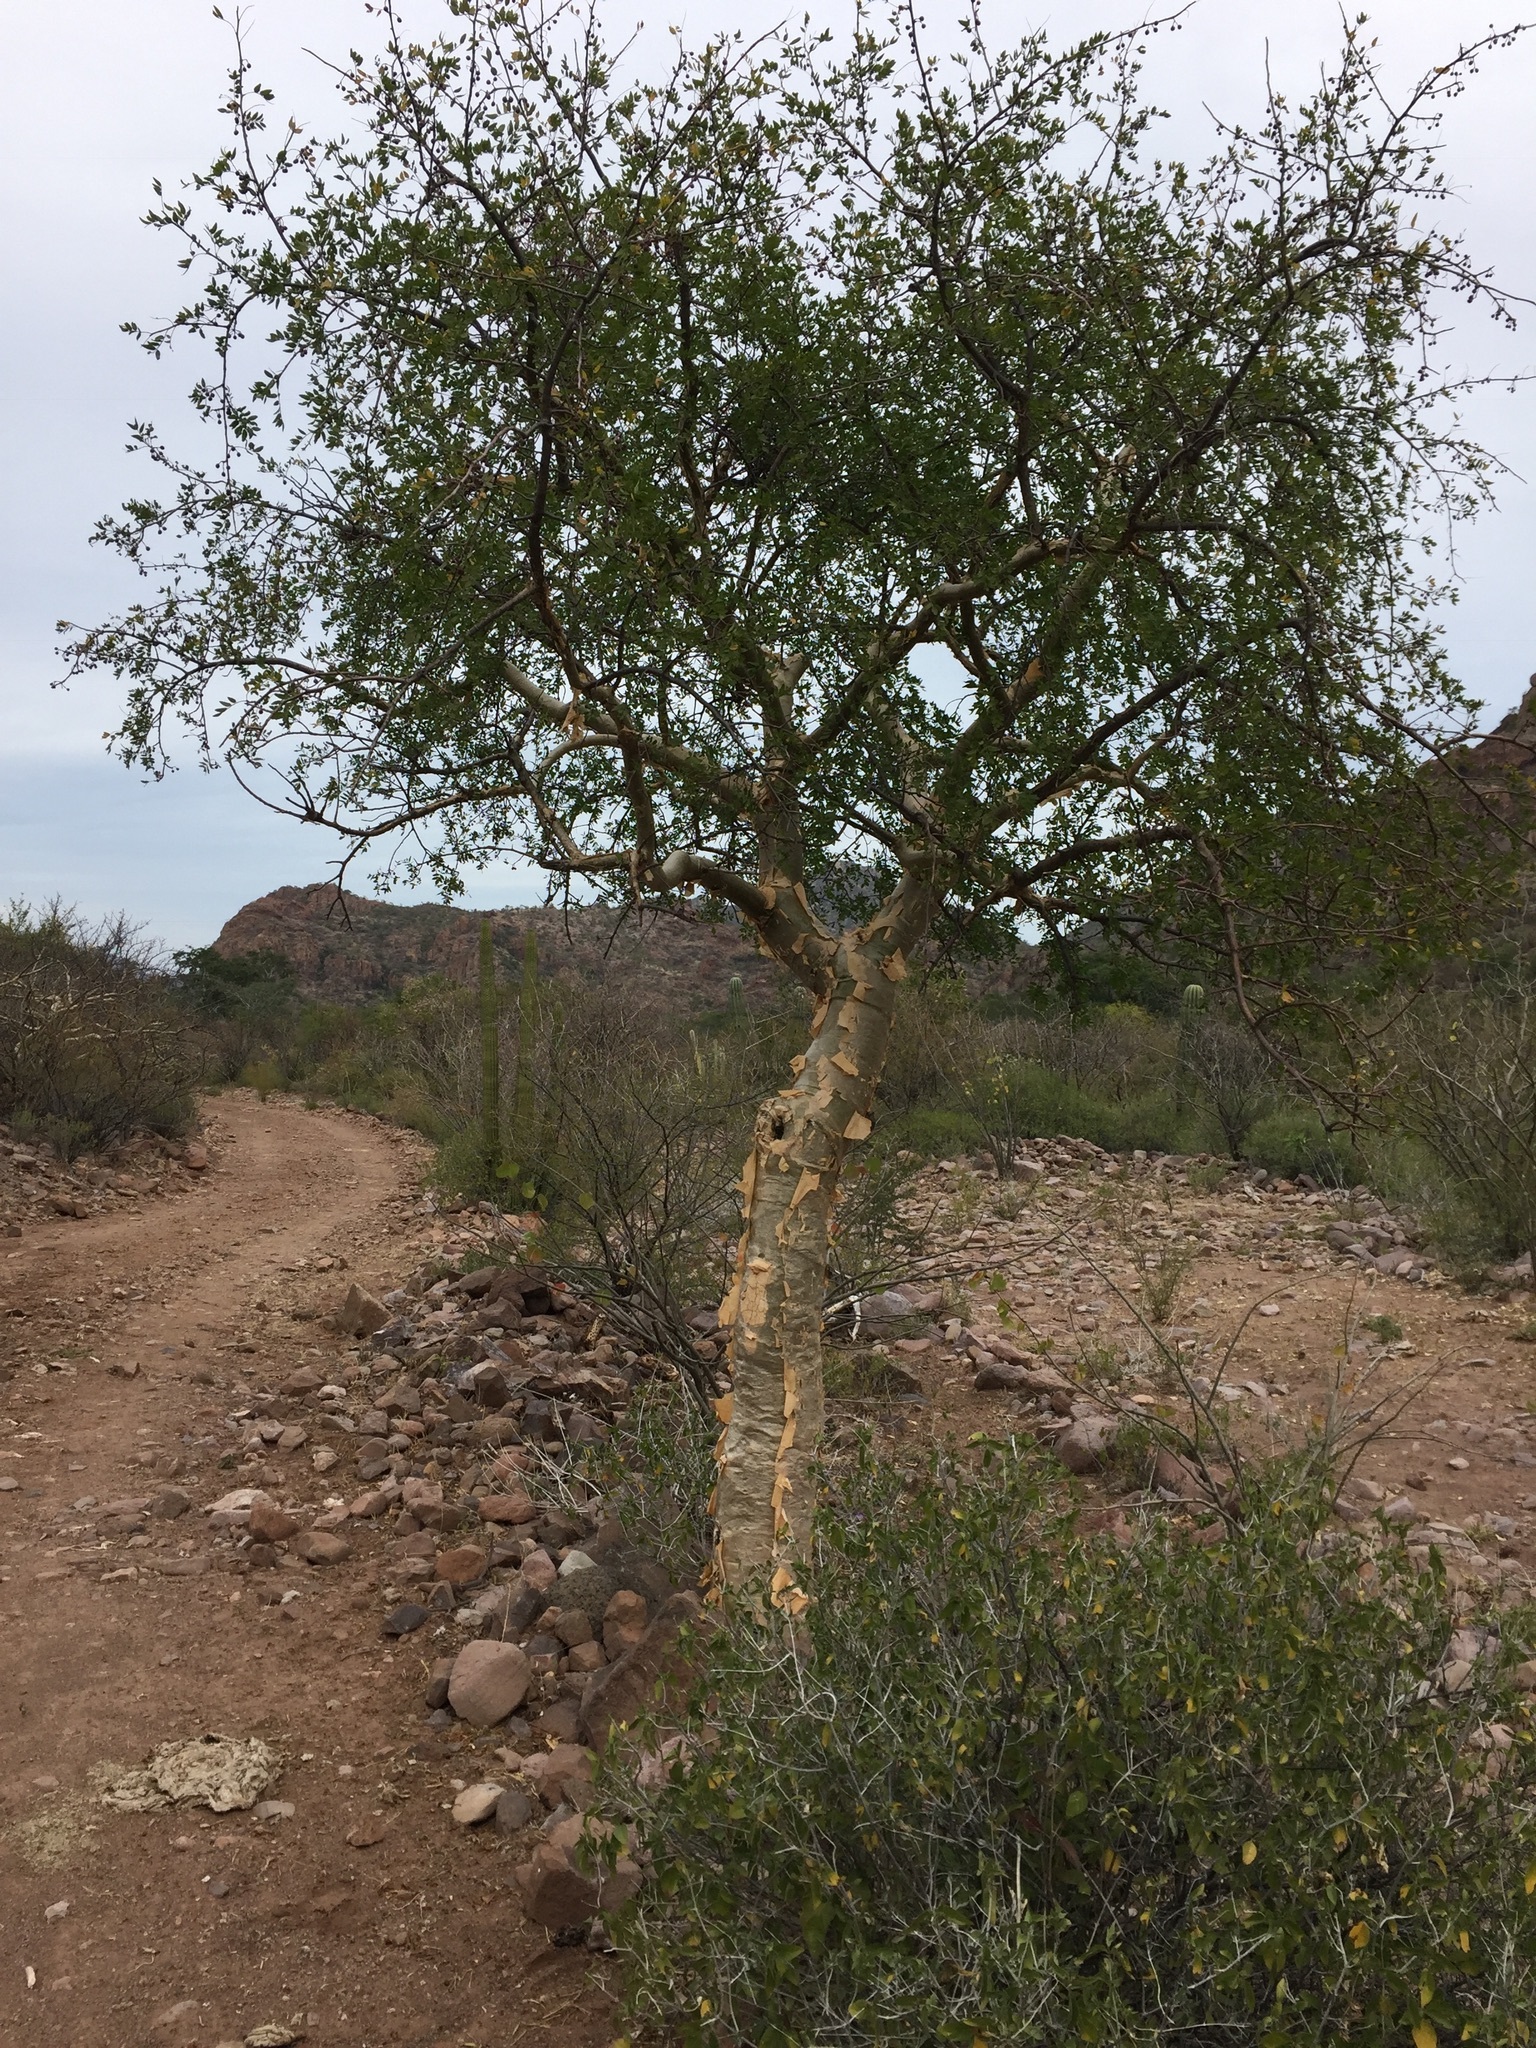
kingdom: Plantae
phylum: Tracheophyta
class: Magnoliopsida
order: Sapindales
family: Burseraceae
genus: Bursera
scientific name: Bursera fagaroides
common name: Elephant tree
